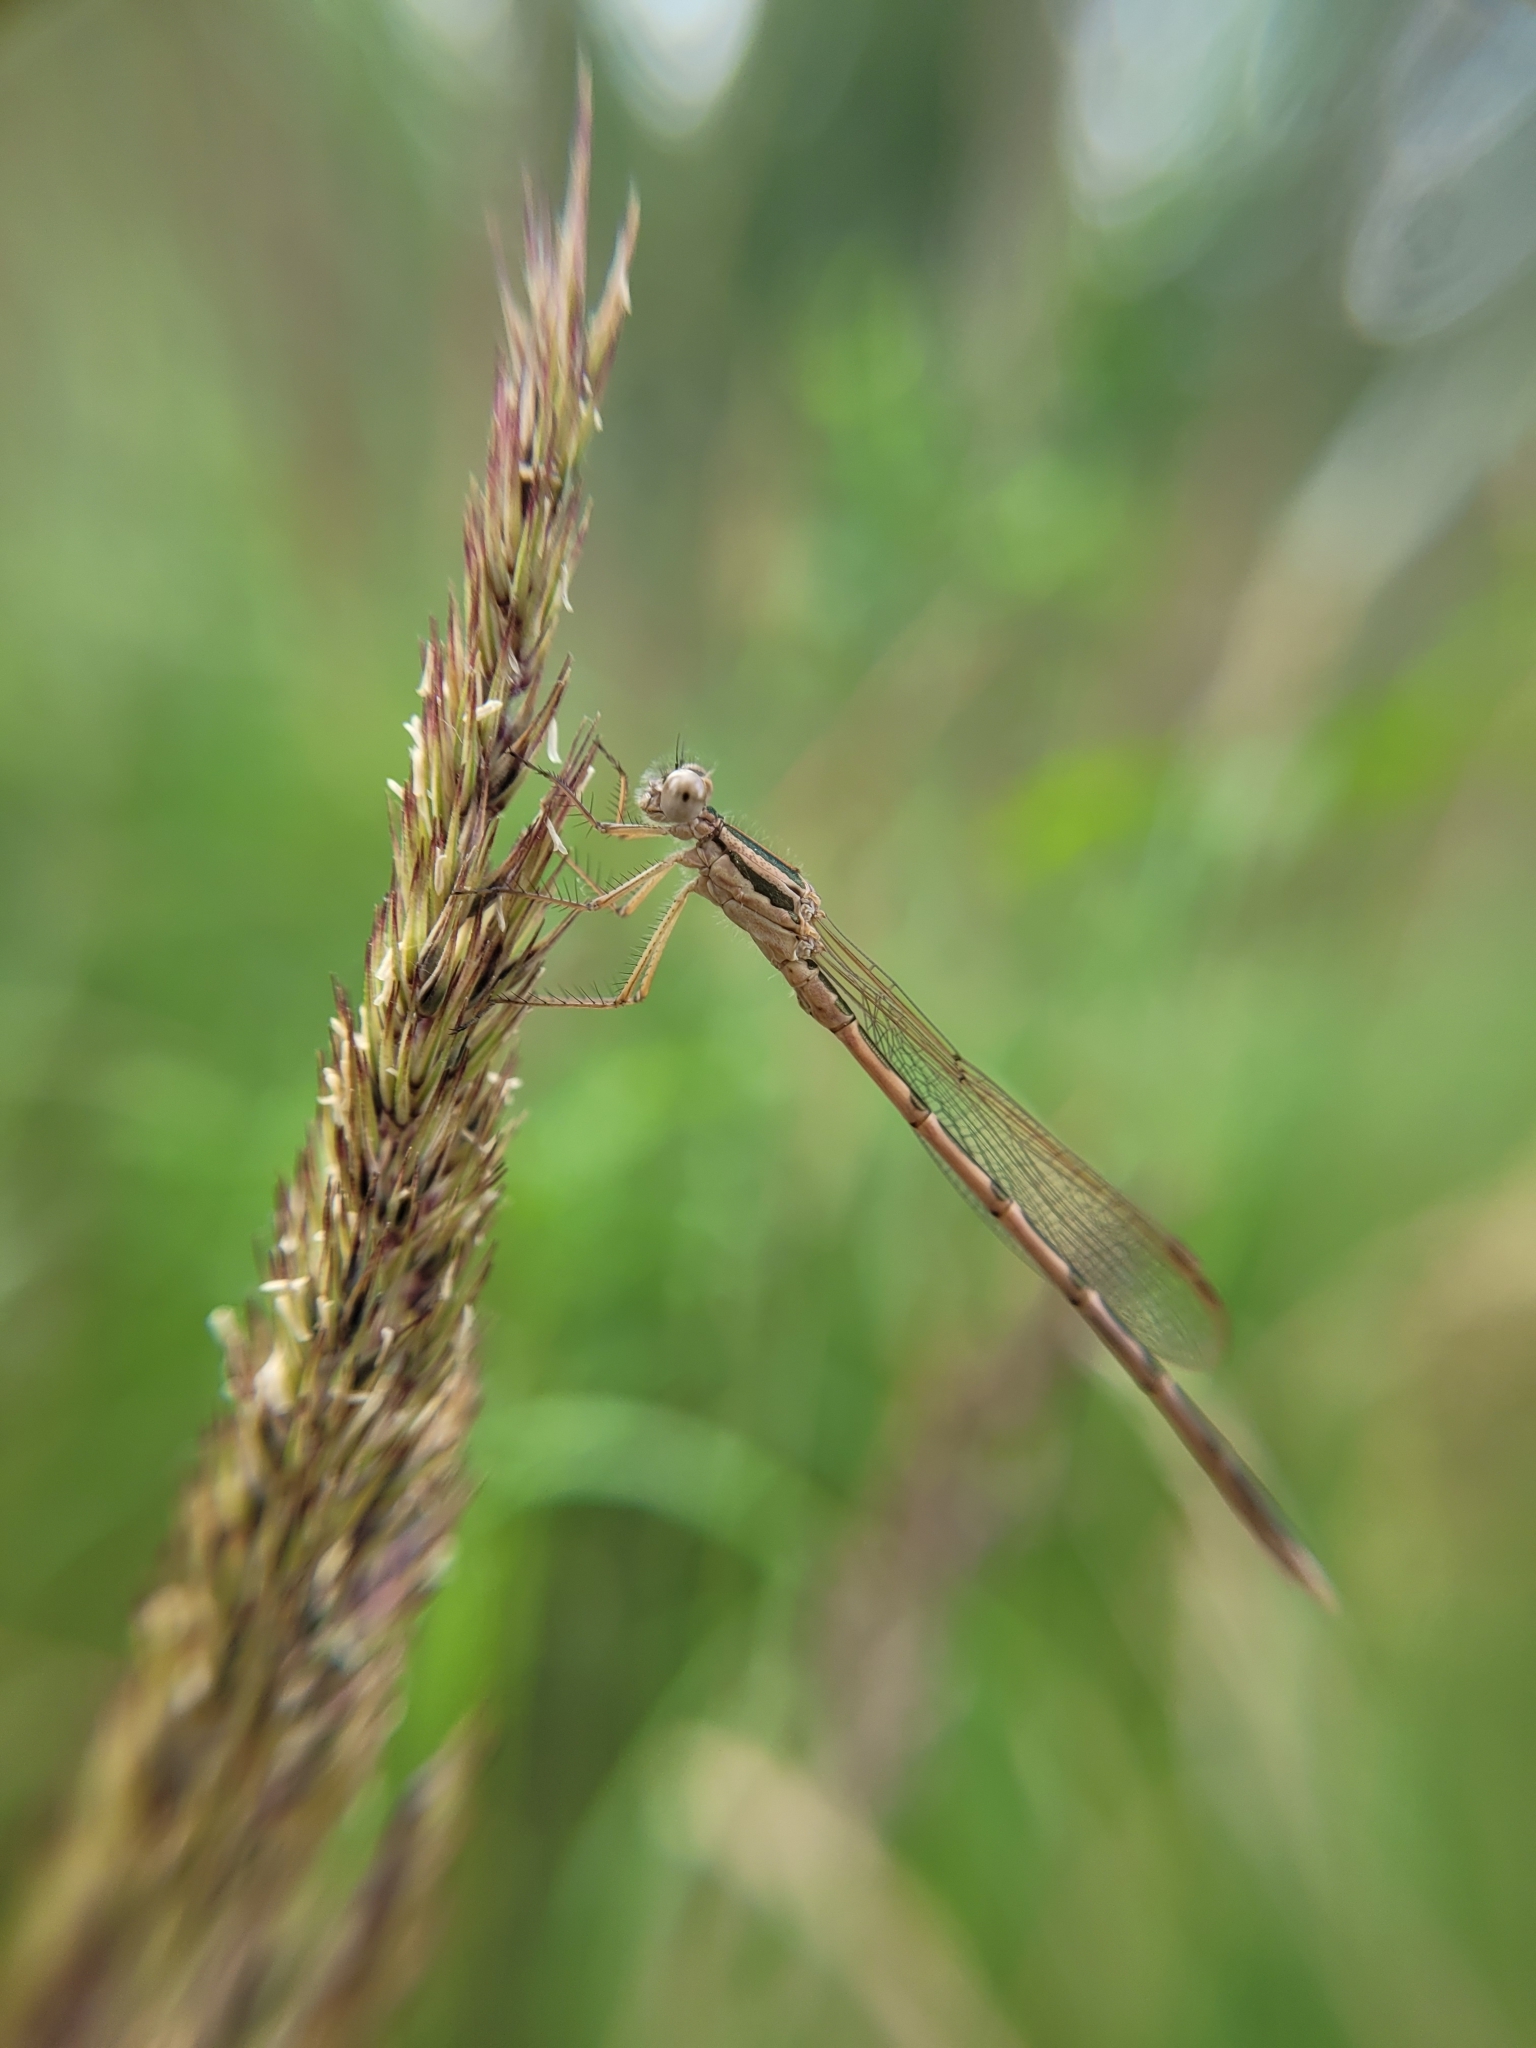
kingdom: Animalia
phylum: Arthropoda
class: Insecta
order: Odonata
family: Lestidae
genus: Sympecma
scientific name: Sympecma fusca
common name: Common winter damsel
